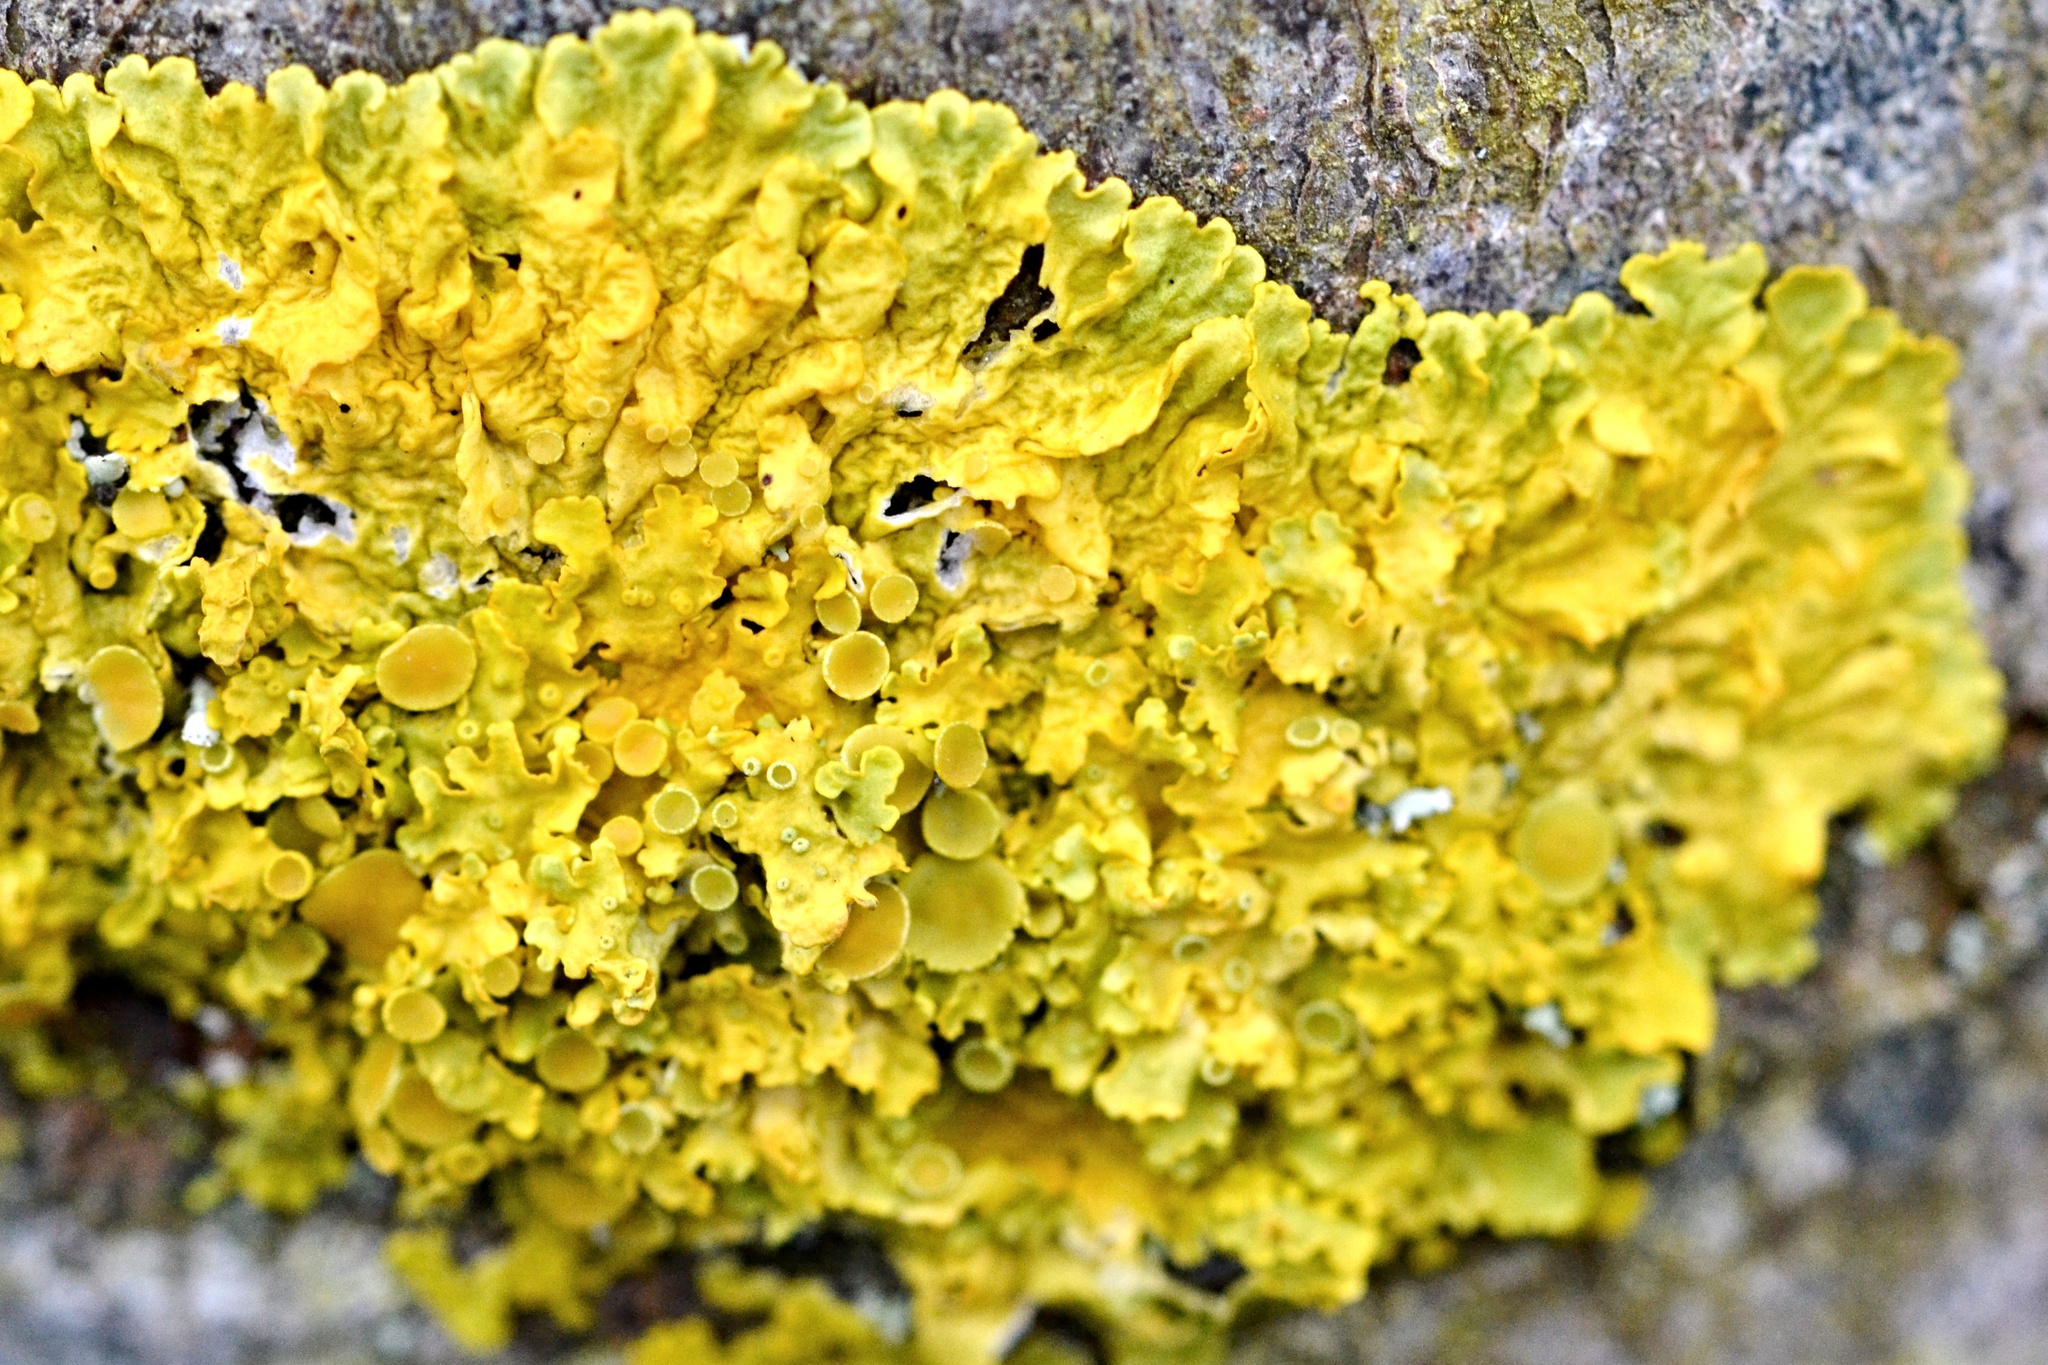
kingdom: Fungi
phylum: Ascomycota
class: Lecanoromycetes
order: Teloschistales
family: Teloschistaceae
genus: Xanthoria
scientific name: Xanthoria parietina
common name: Common orange lichen
